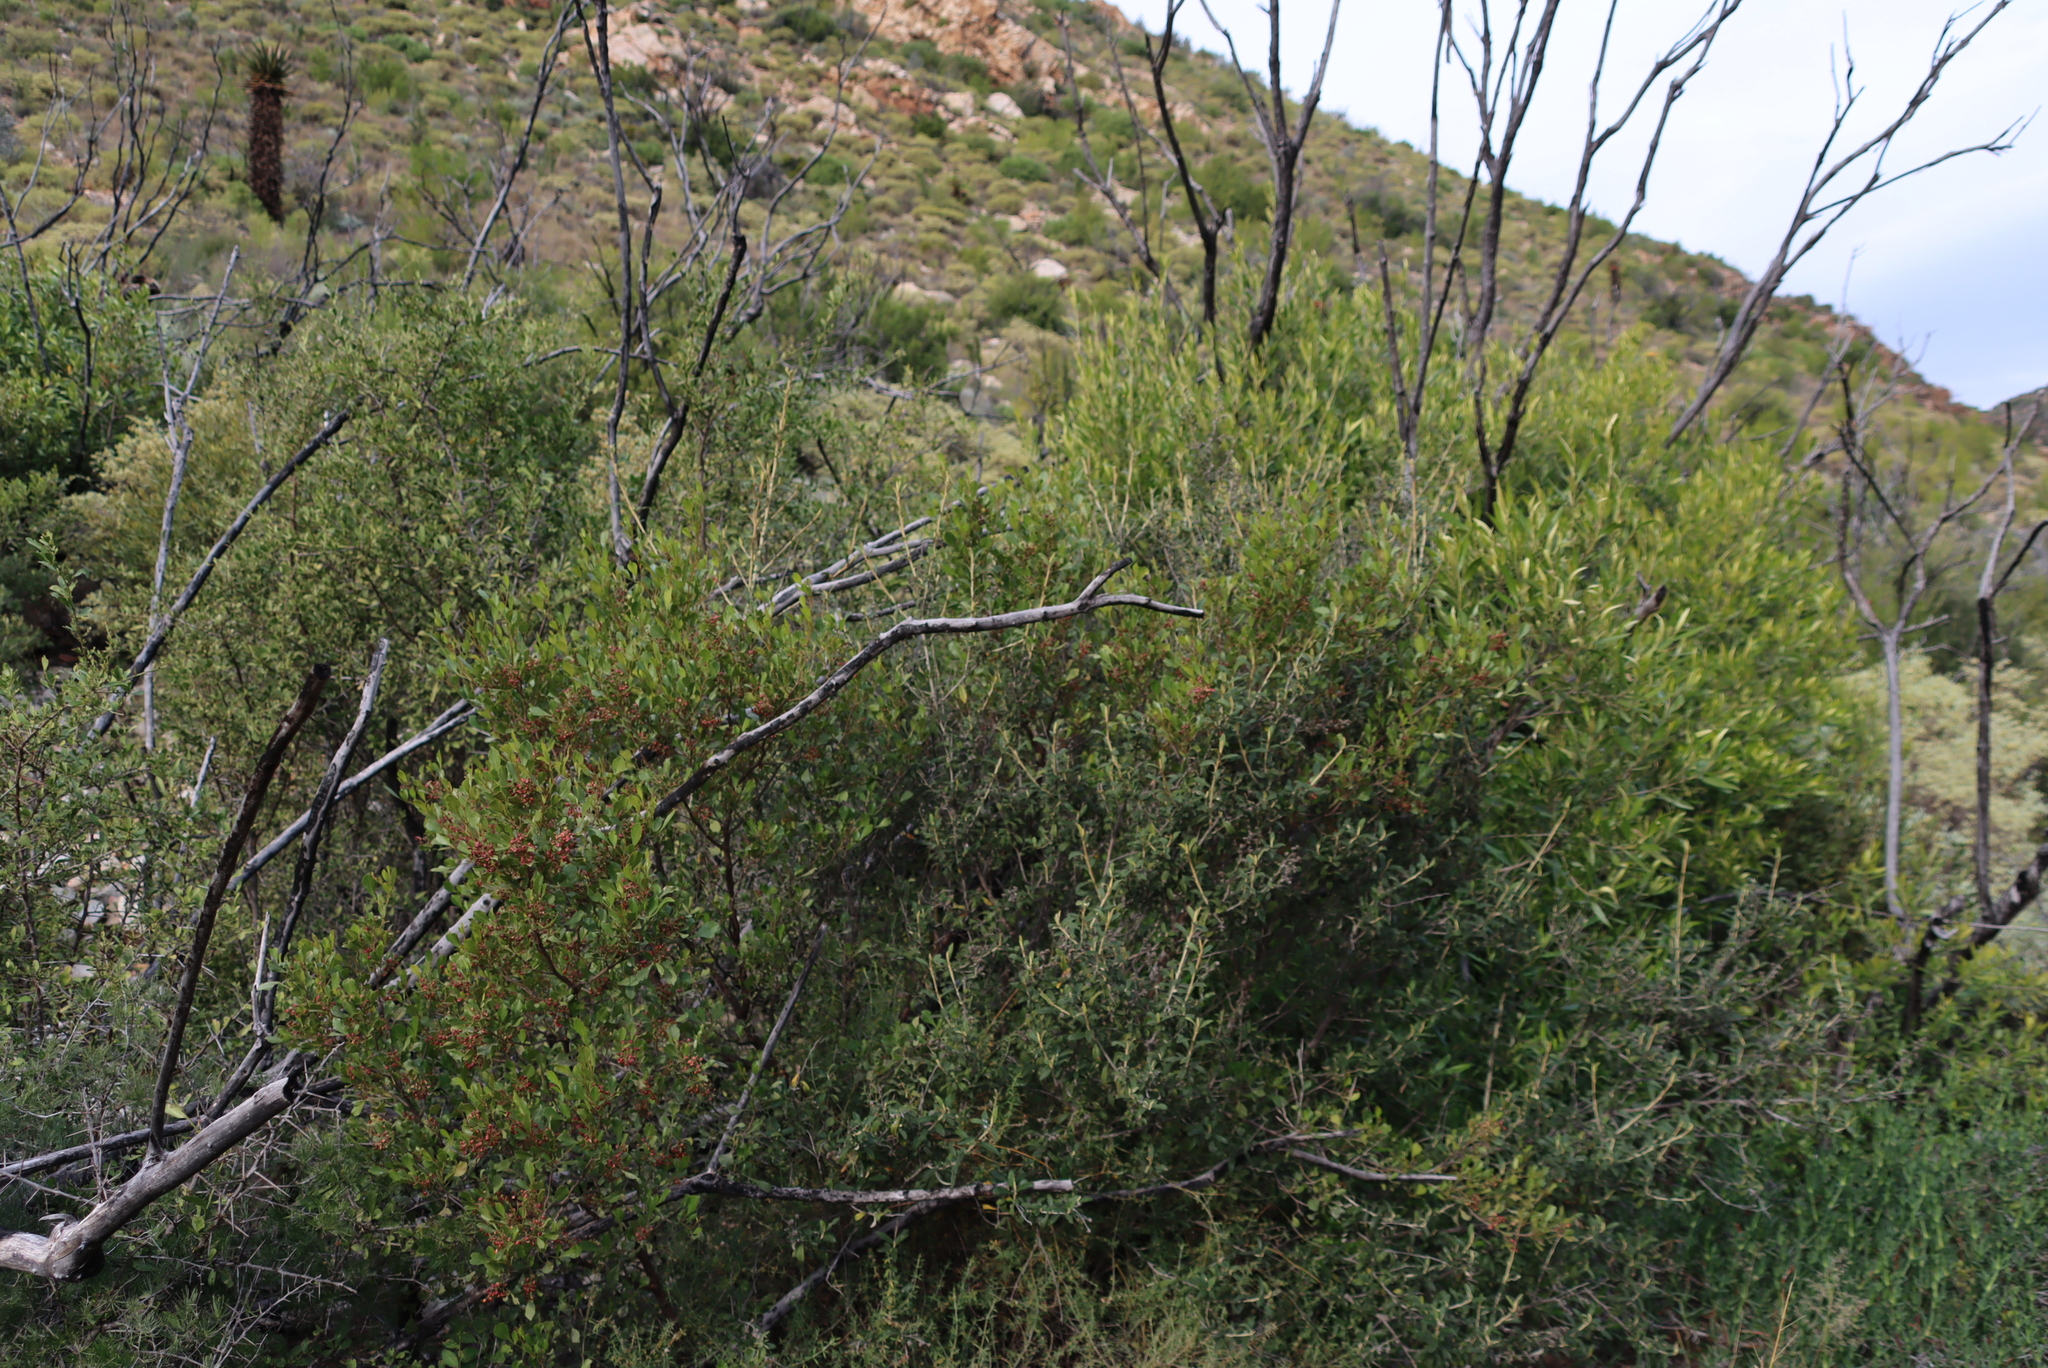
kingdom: Plantae
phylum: Tracheophyta
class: Magnoliopsida
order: Sapindales
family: Anacardiaceae
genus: Searsia
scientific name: Searsia pallens
